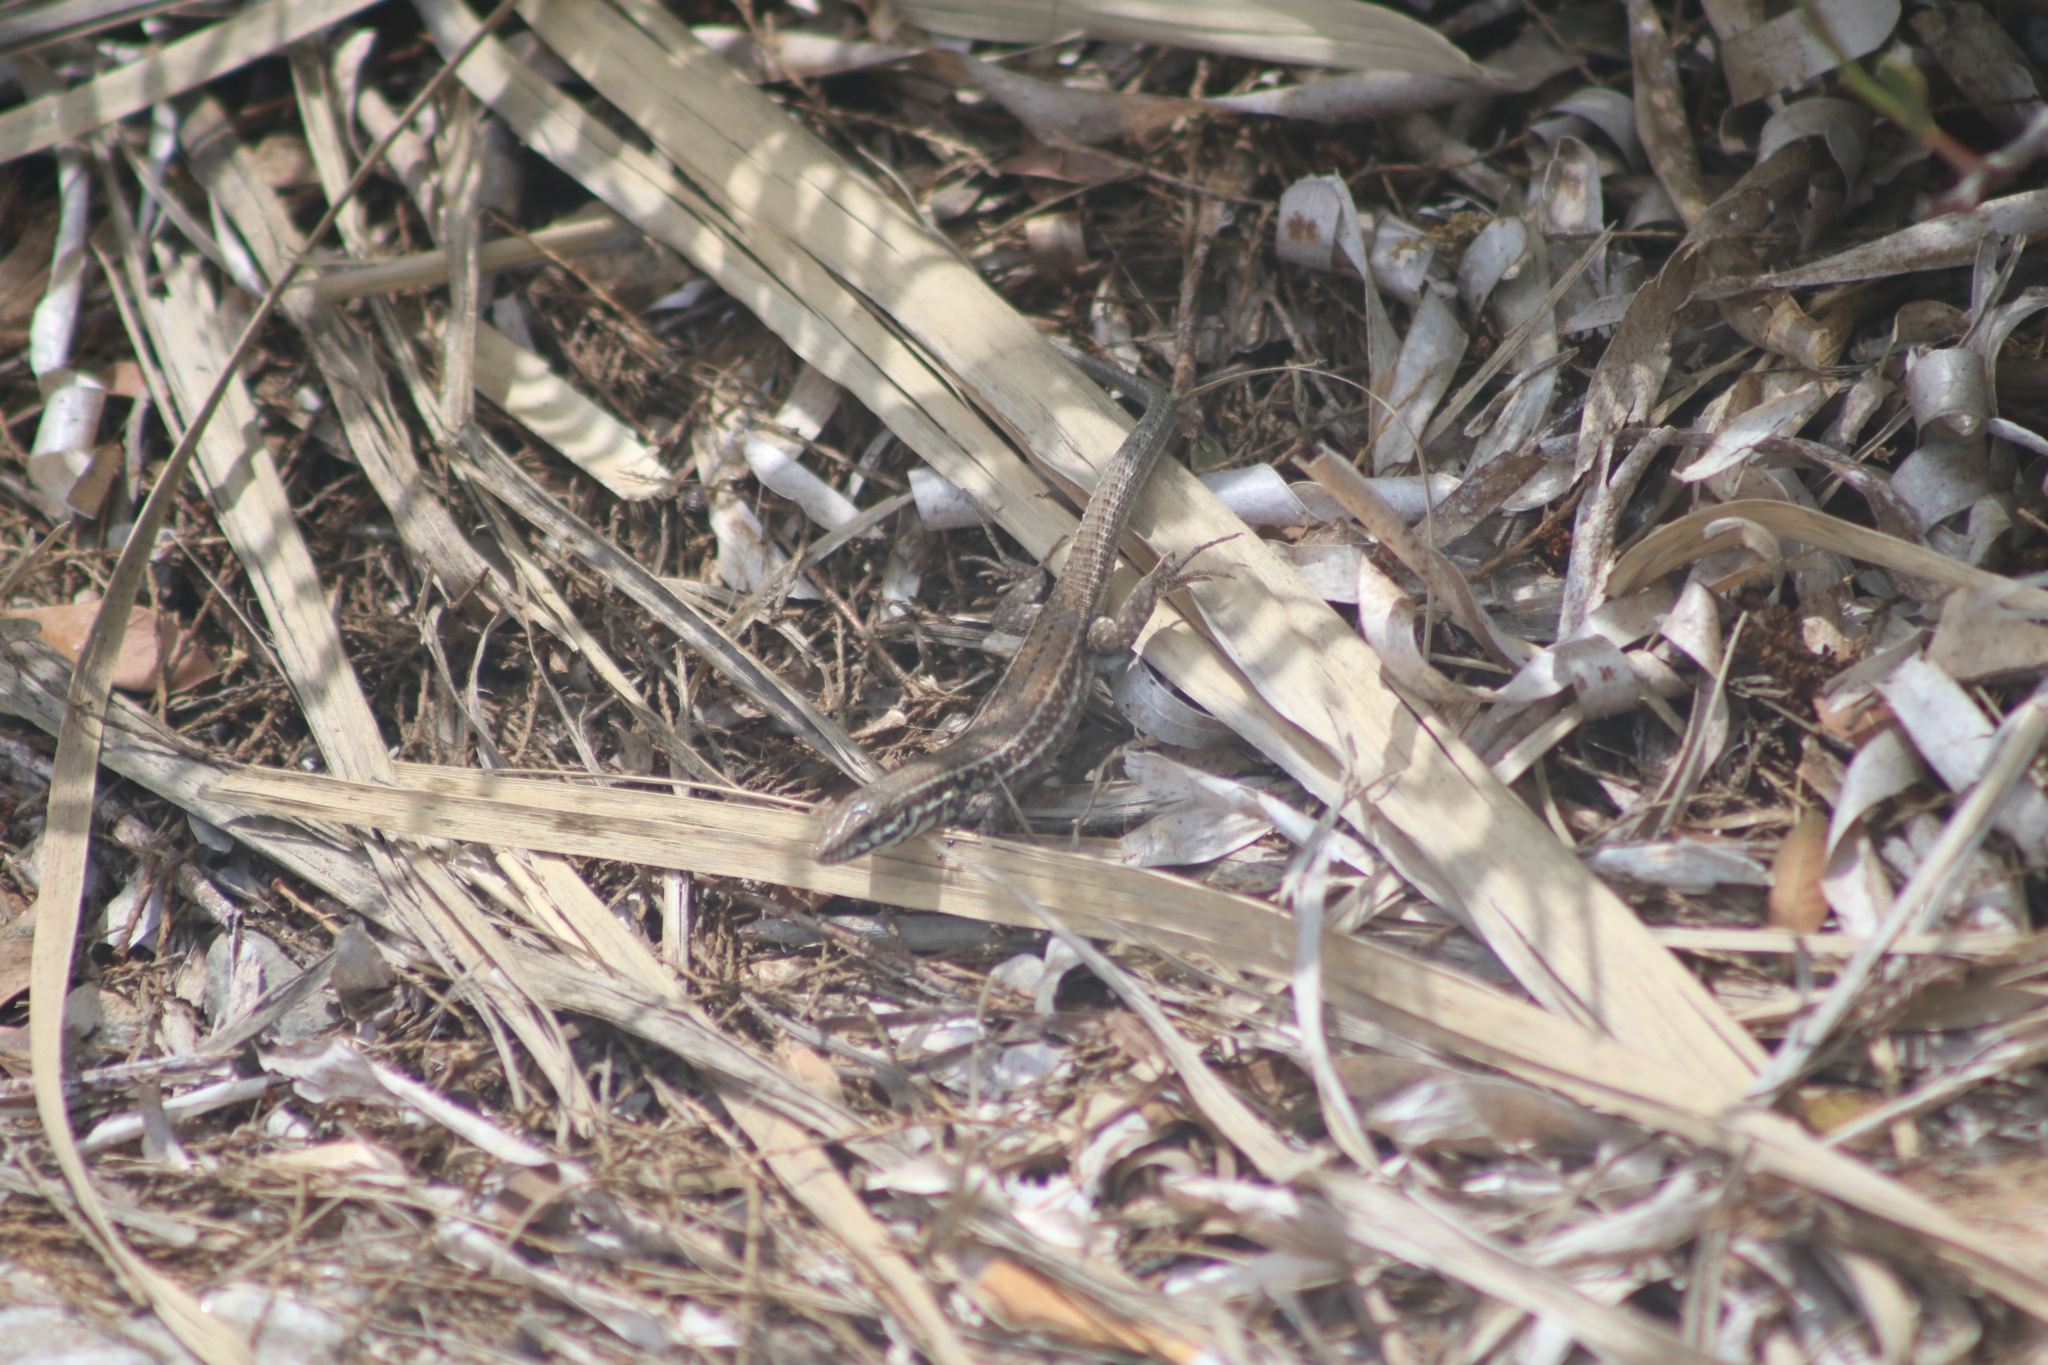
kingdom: Animalia
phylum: Chordata
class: Squamata
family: Lacertidae
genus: Podarcis
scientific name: Podarcis milensis
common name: Milos wall lizard
